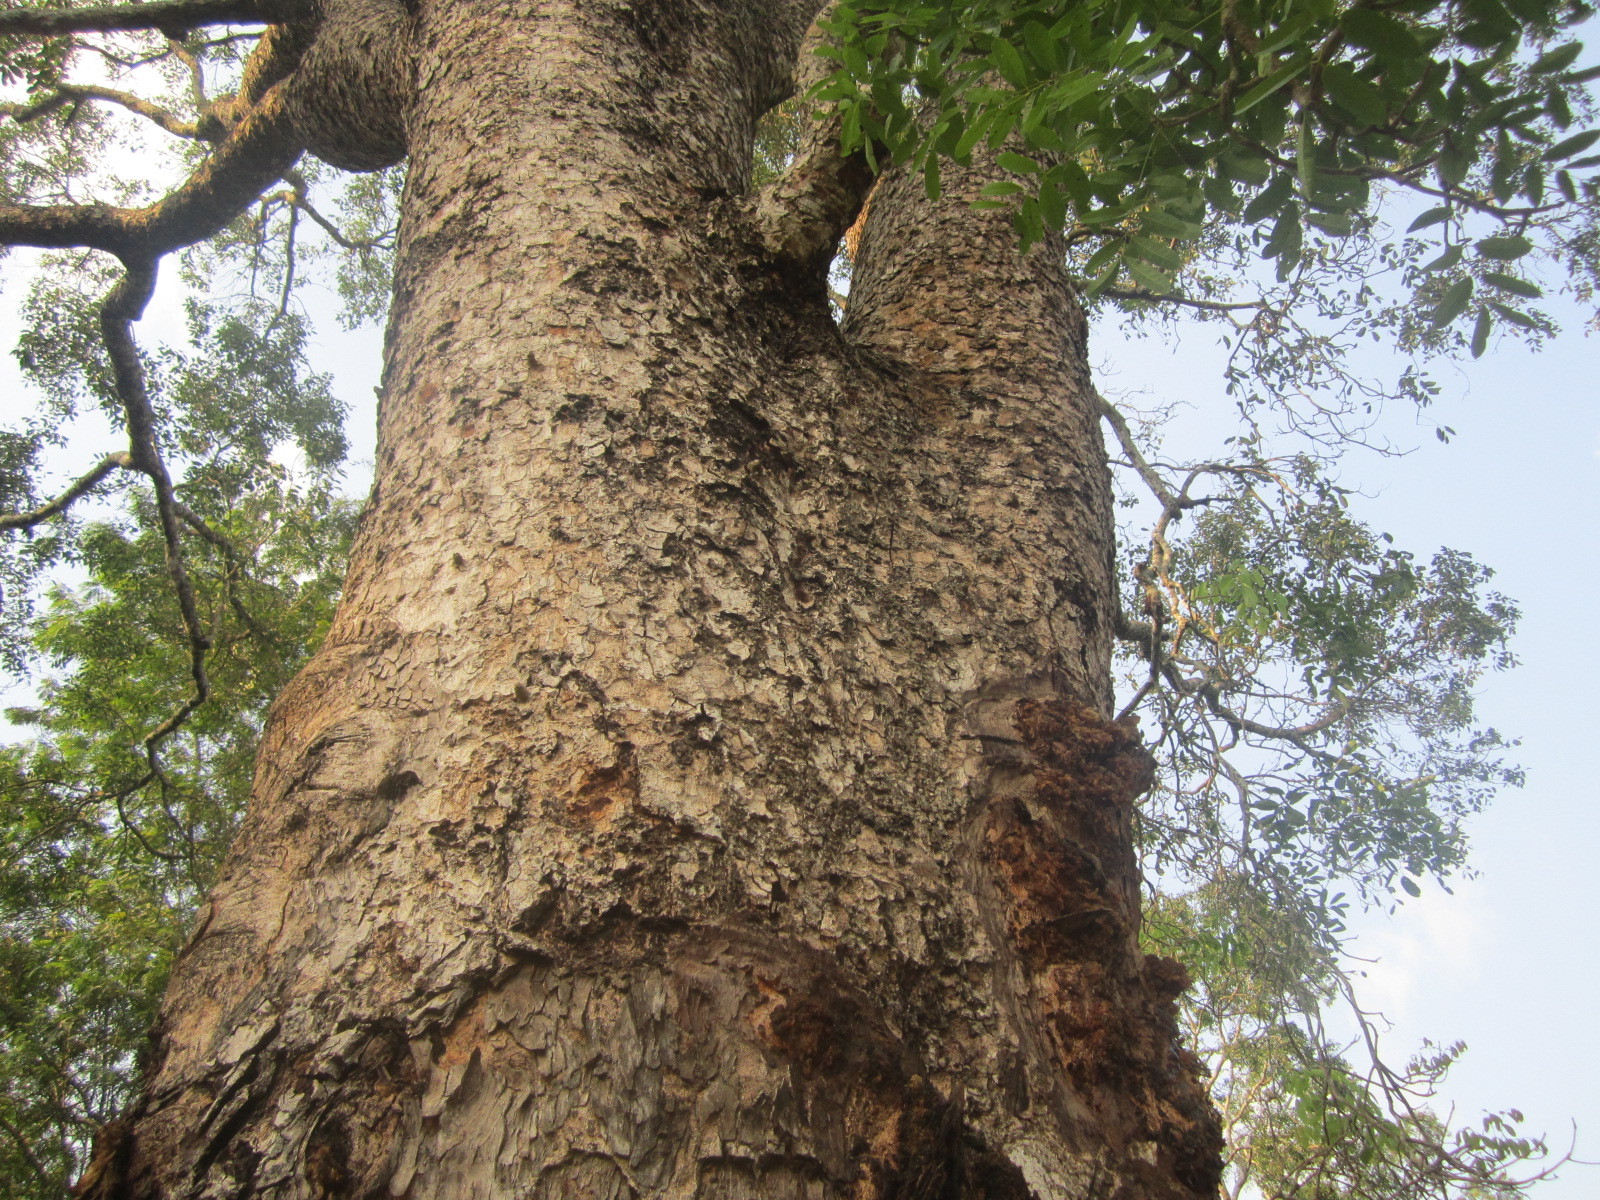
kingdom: Plantae
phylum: Tracheophyta
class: Magnoliopsida
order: Sapindales
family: Meliaceae
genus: Khaya
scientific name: Khaya senegalensis
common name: Senegal mahogany
